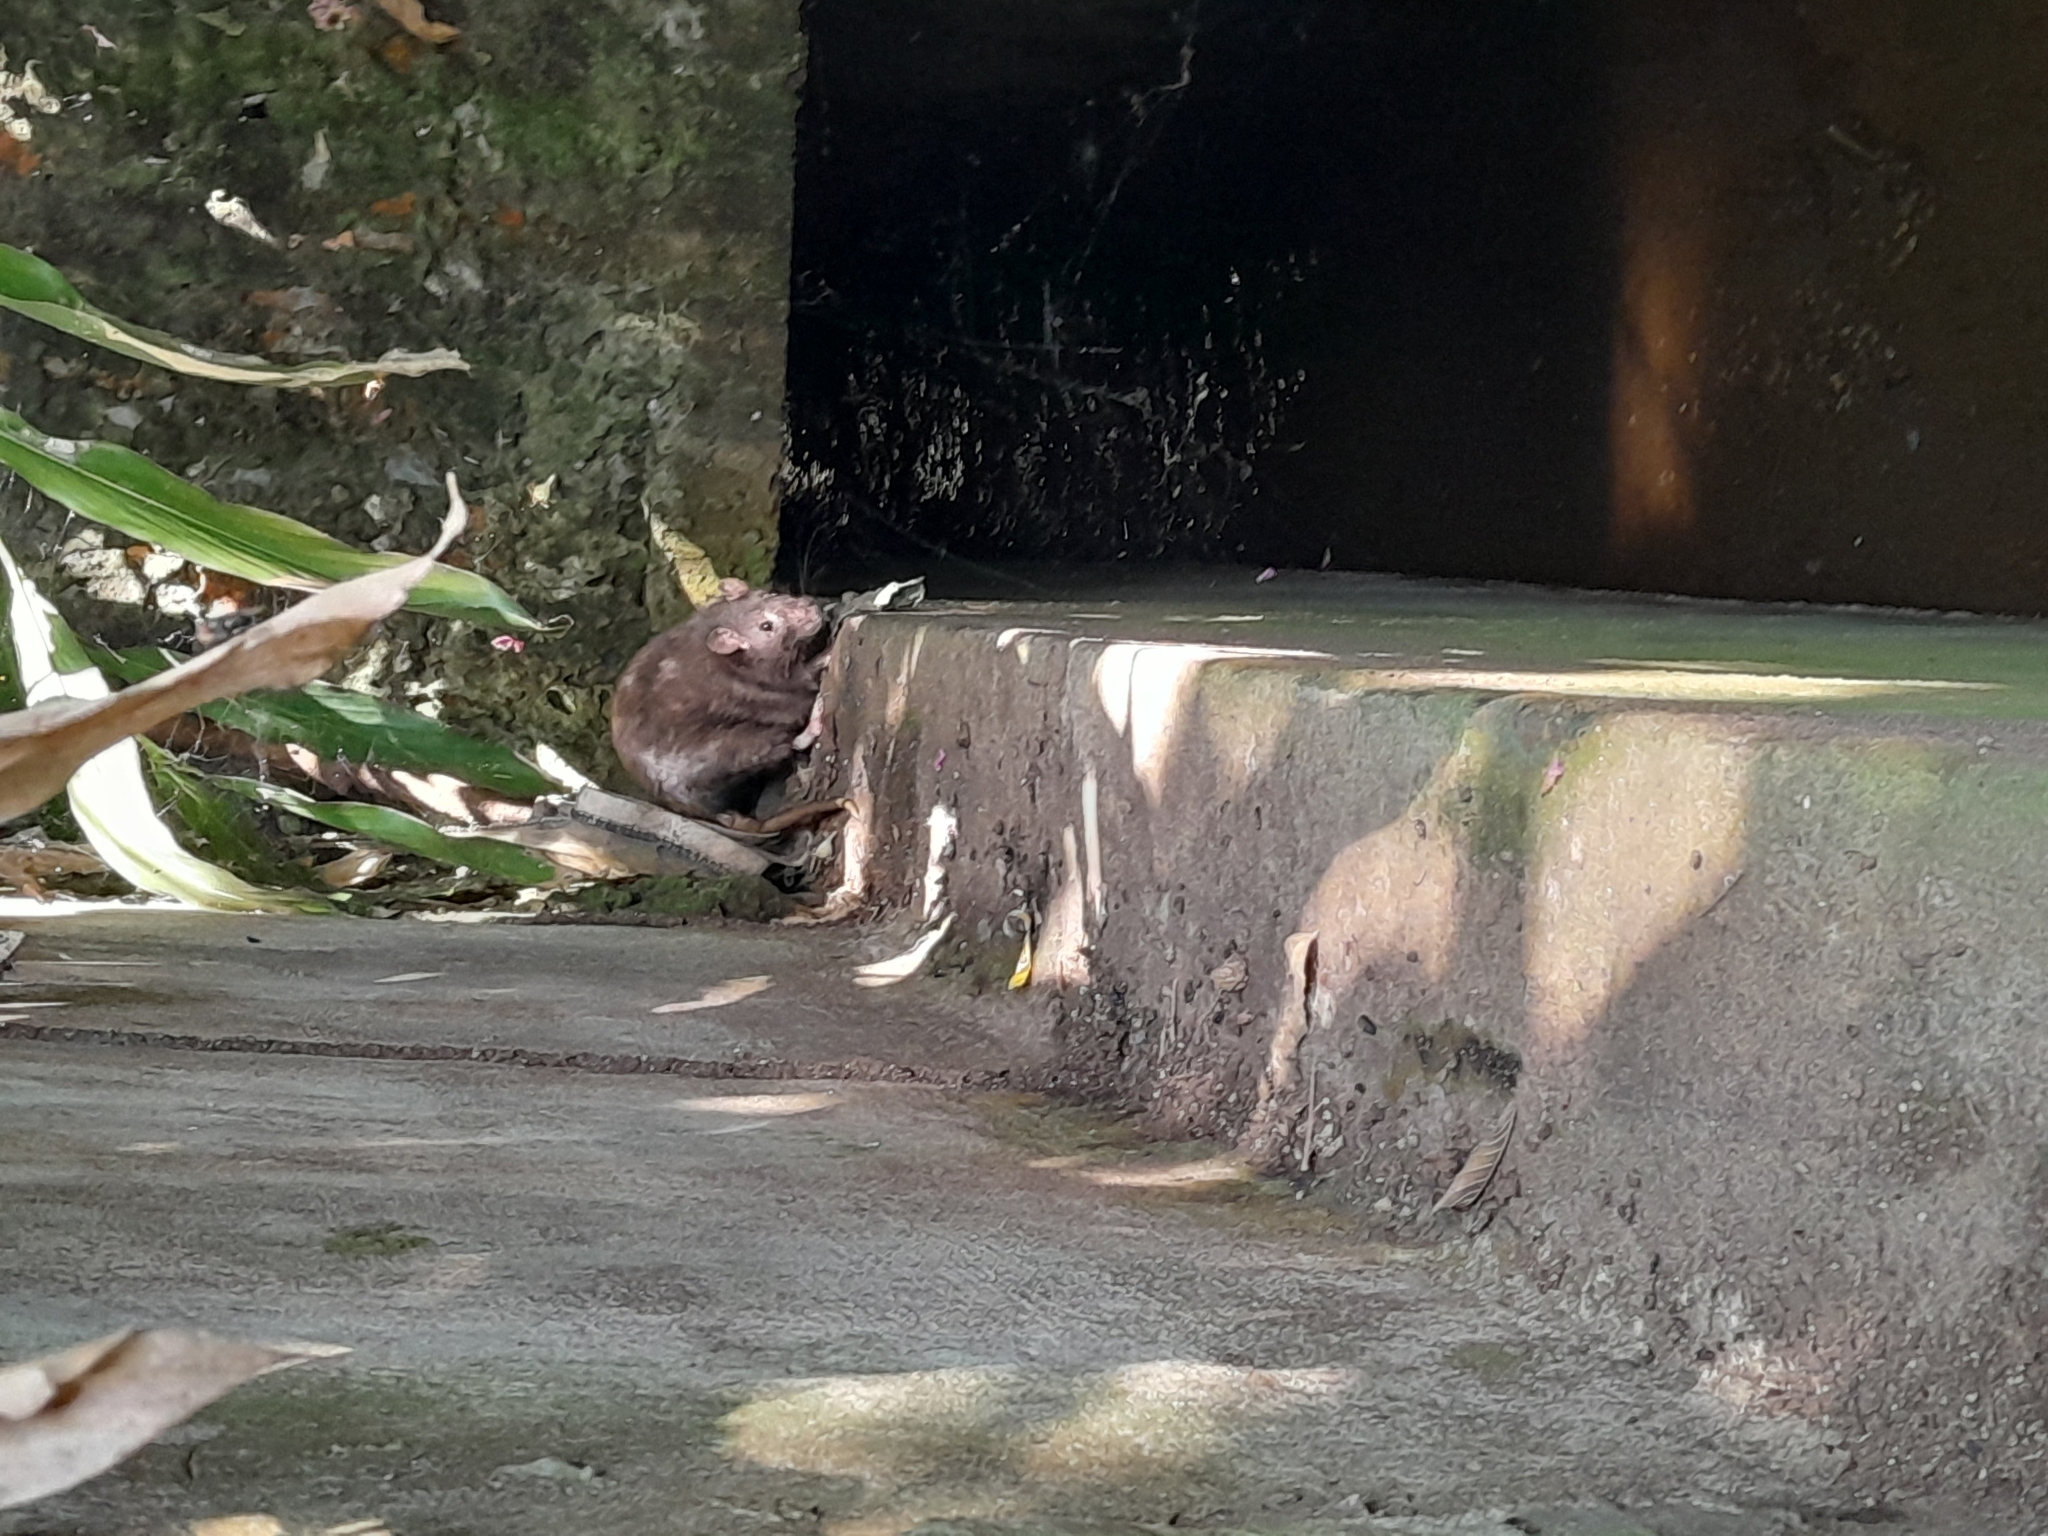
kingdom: Animalia
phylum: Chordata
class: Mammalia
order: Rodentia
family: Muridae
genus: Rattus
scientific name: Rattus norvegicus
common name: Brown rat
